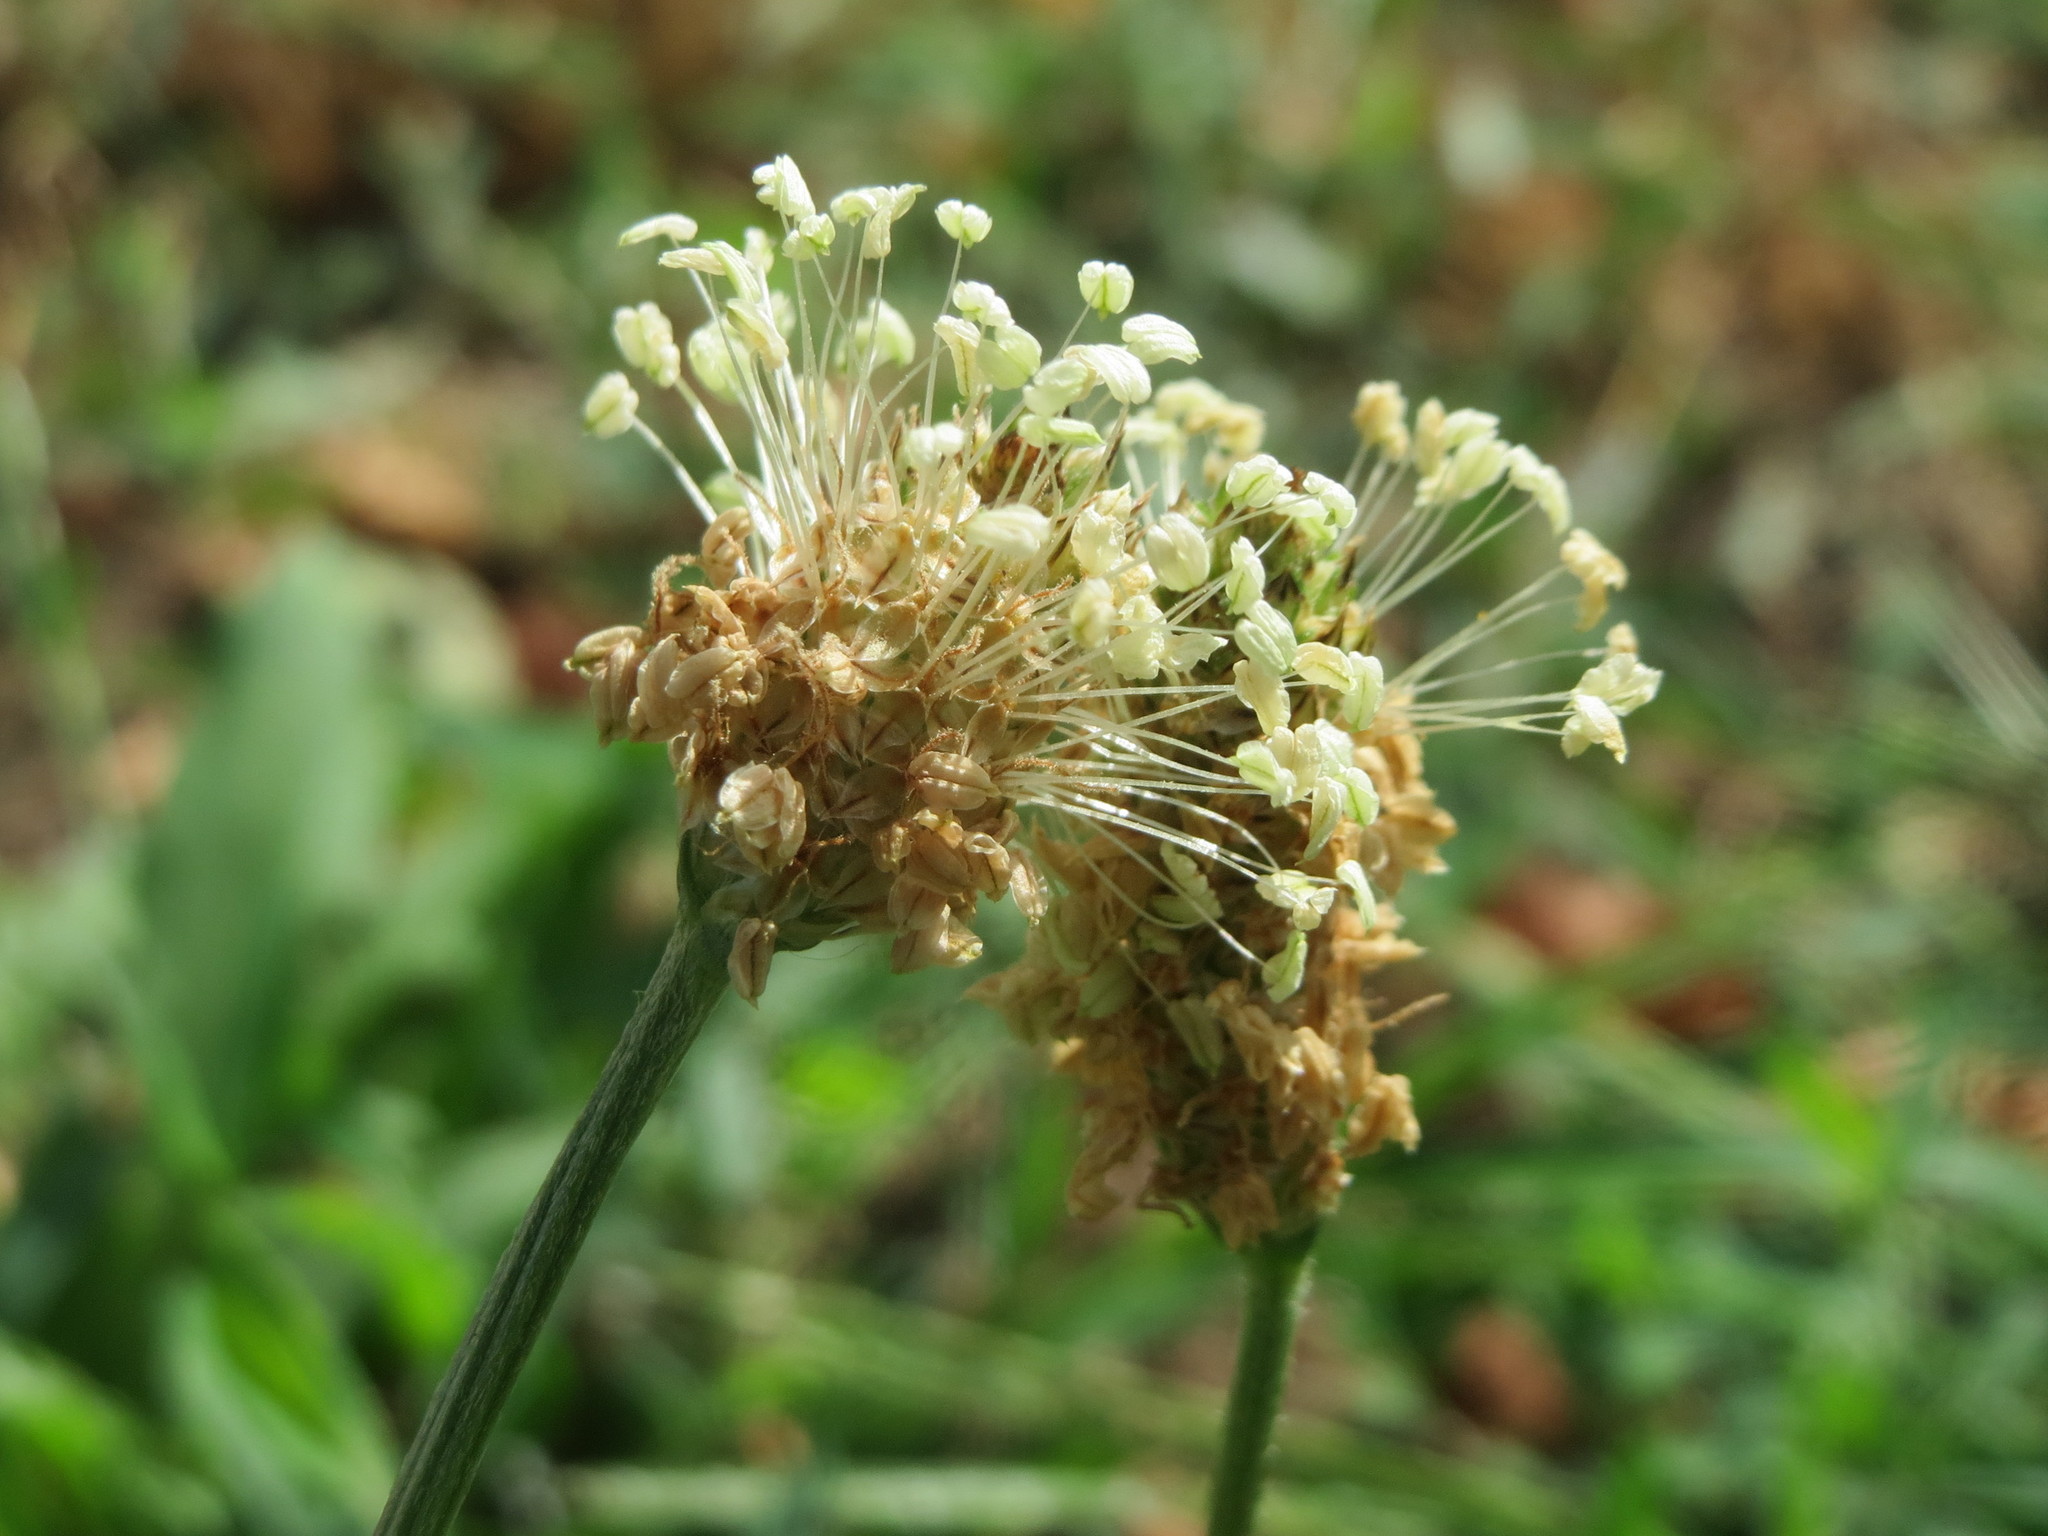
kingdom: Plantae
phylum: Tracheophyta
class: Magnoliopsida
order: Lamiales
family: Plantaginaceae
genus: Plantago
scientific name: Plantago lanceolata
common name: Ribwort plantain
